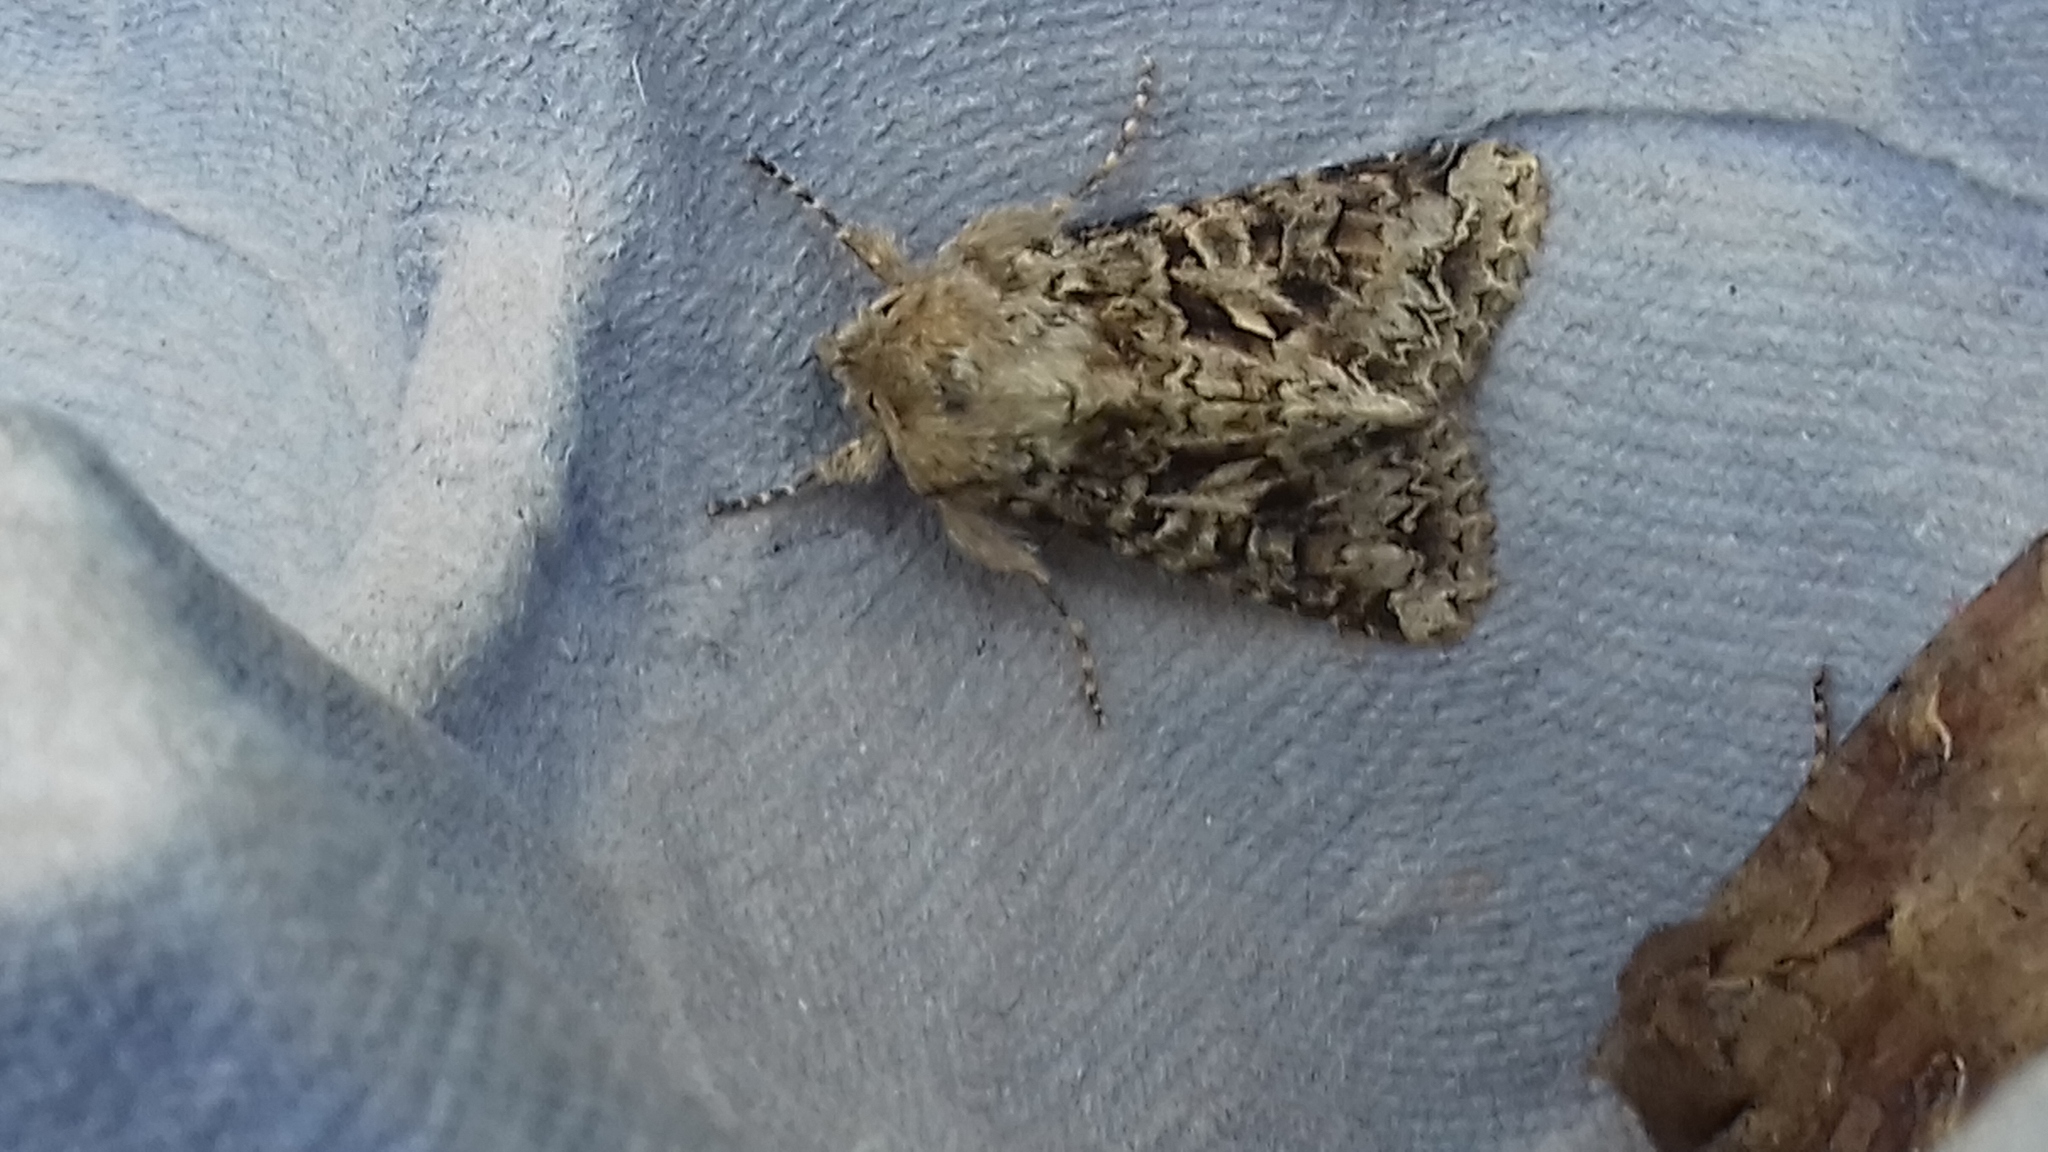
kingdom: Animalia
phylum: Arthropoda
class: Insecta
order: Lepidoptera
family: Noctuidae
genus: Hada
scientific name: Hada plebeja
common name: Shears
